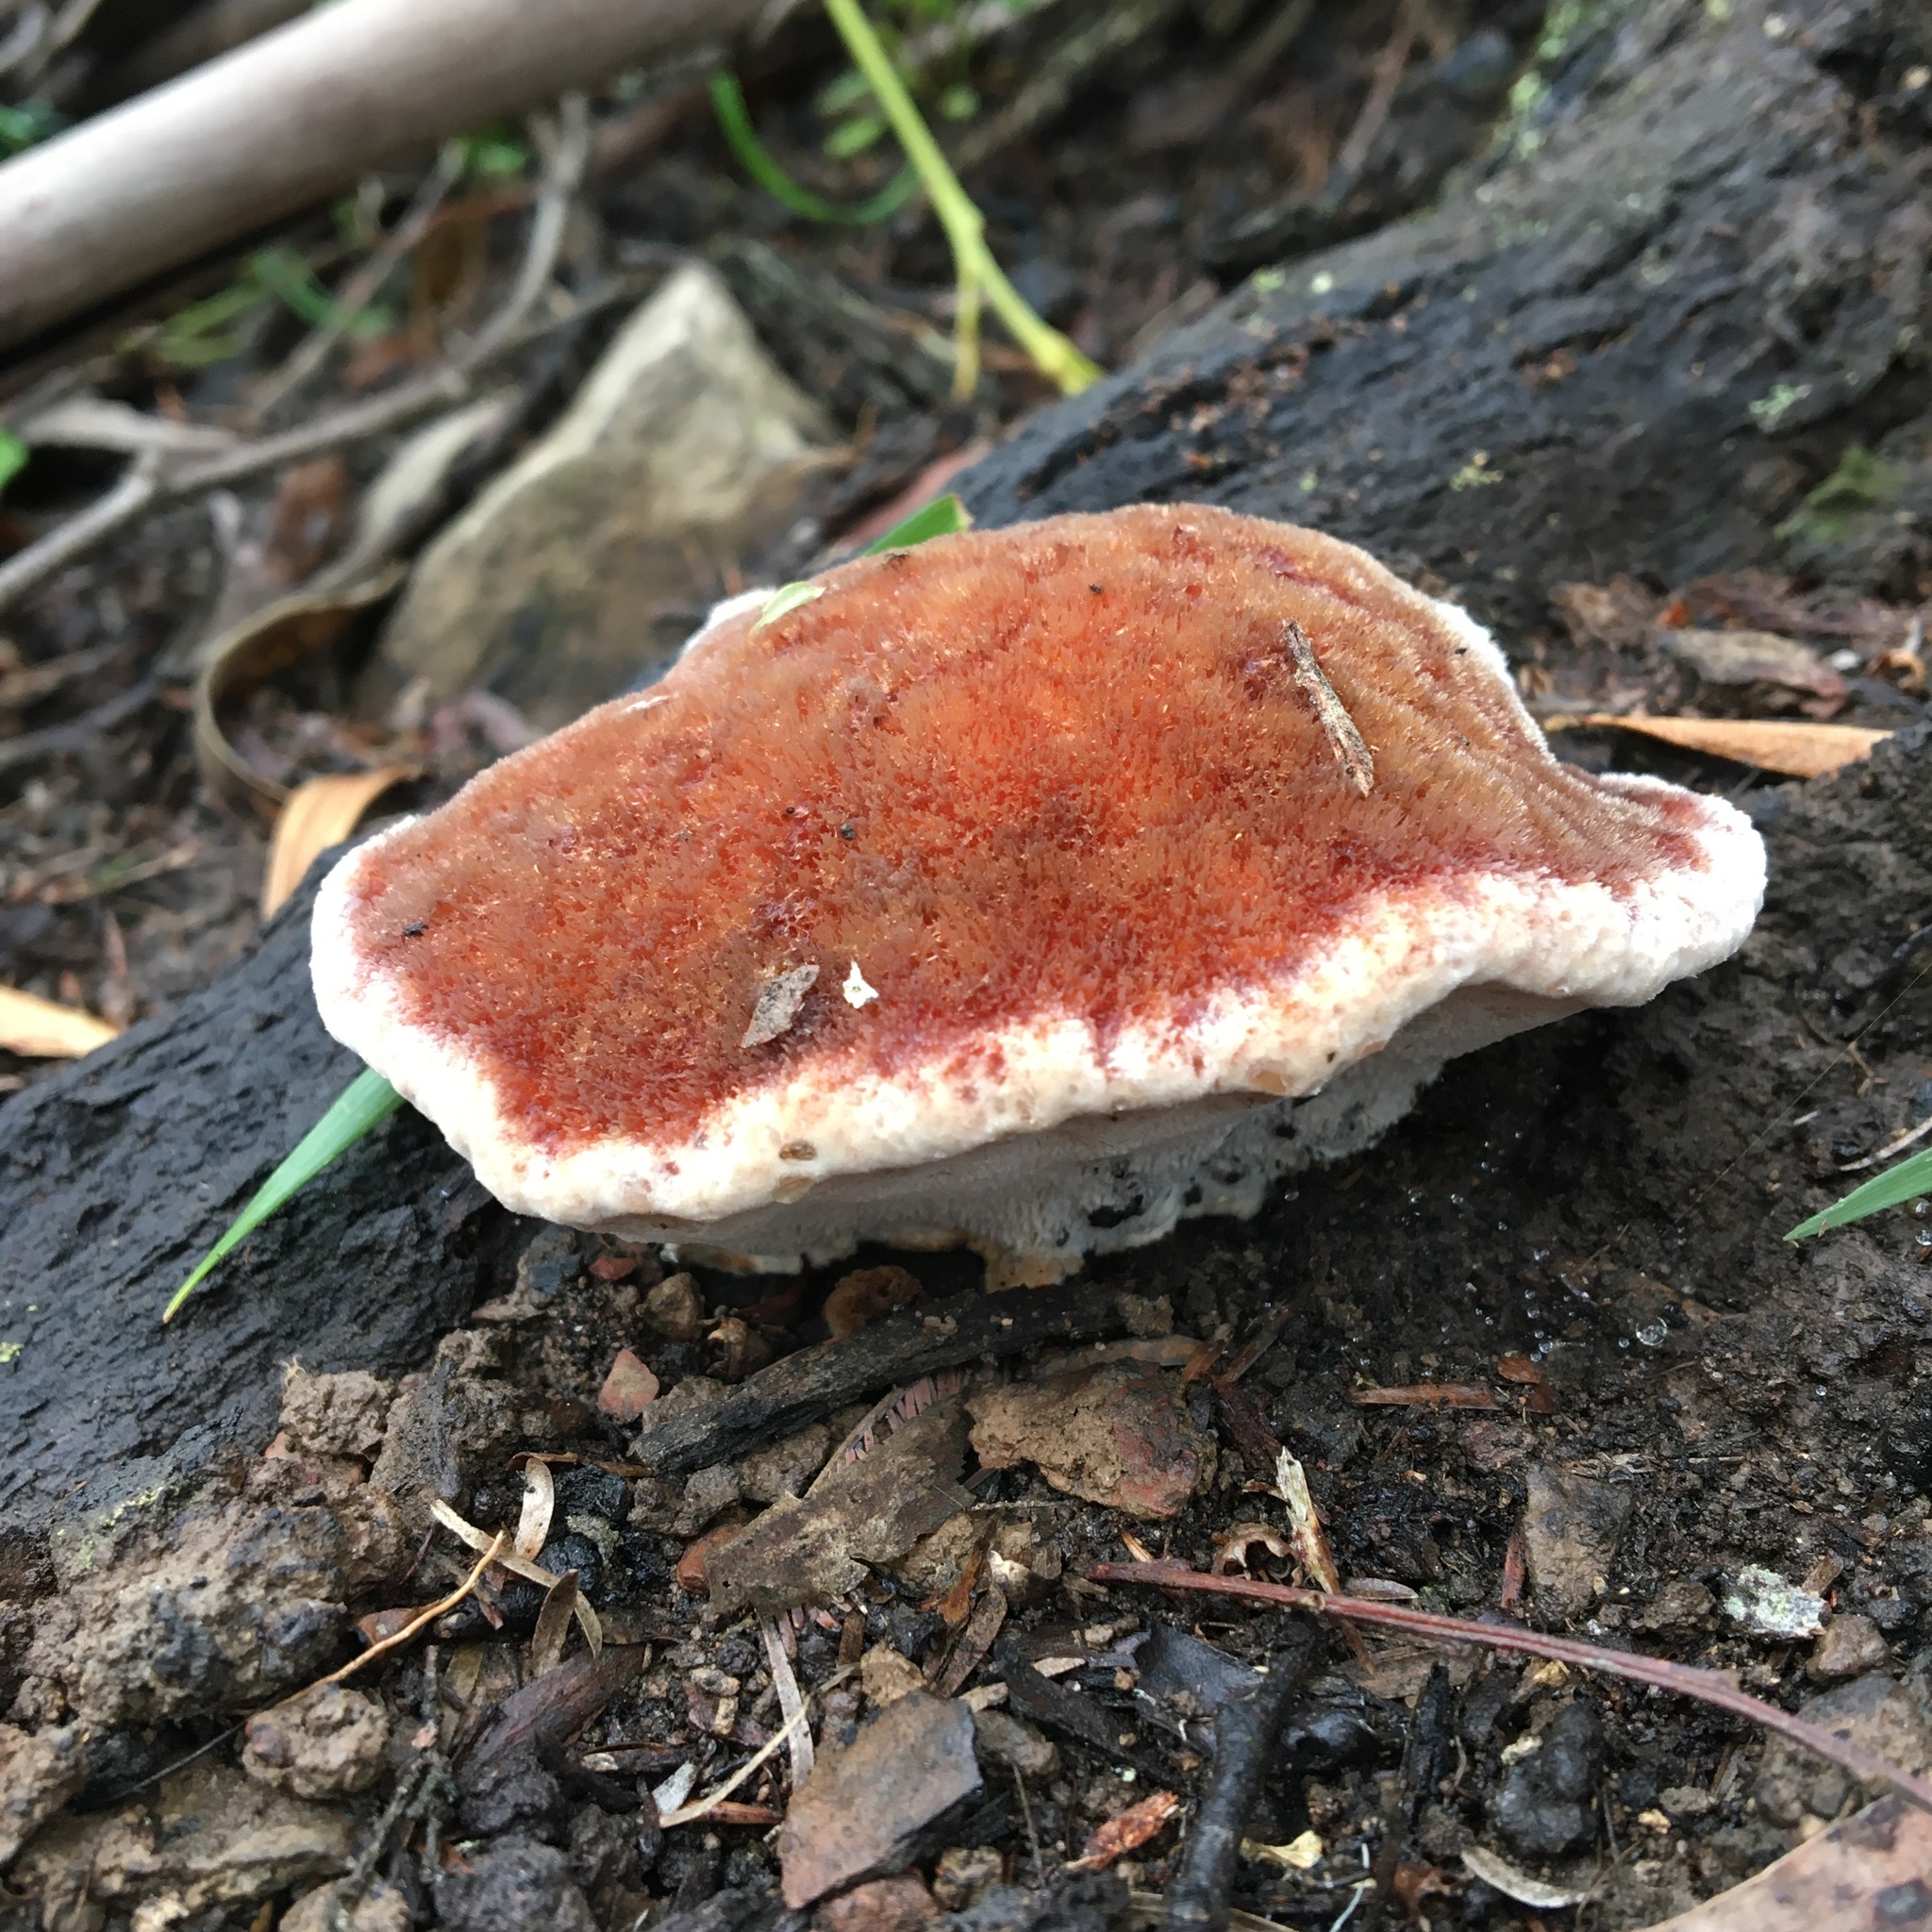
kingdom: Fungi
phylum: Basidiomycota
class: Agaricomycetes
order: Polyporales
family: Dacryobolaceae
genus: Oligoporus
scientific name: Oligoporus pelliculosus
